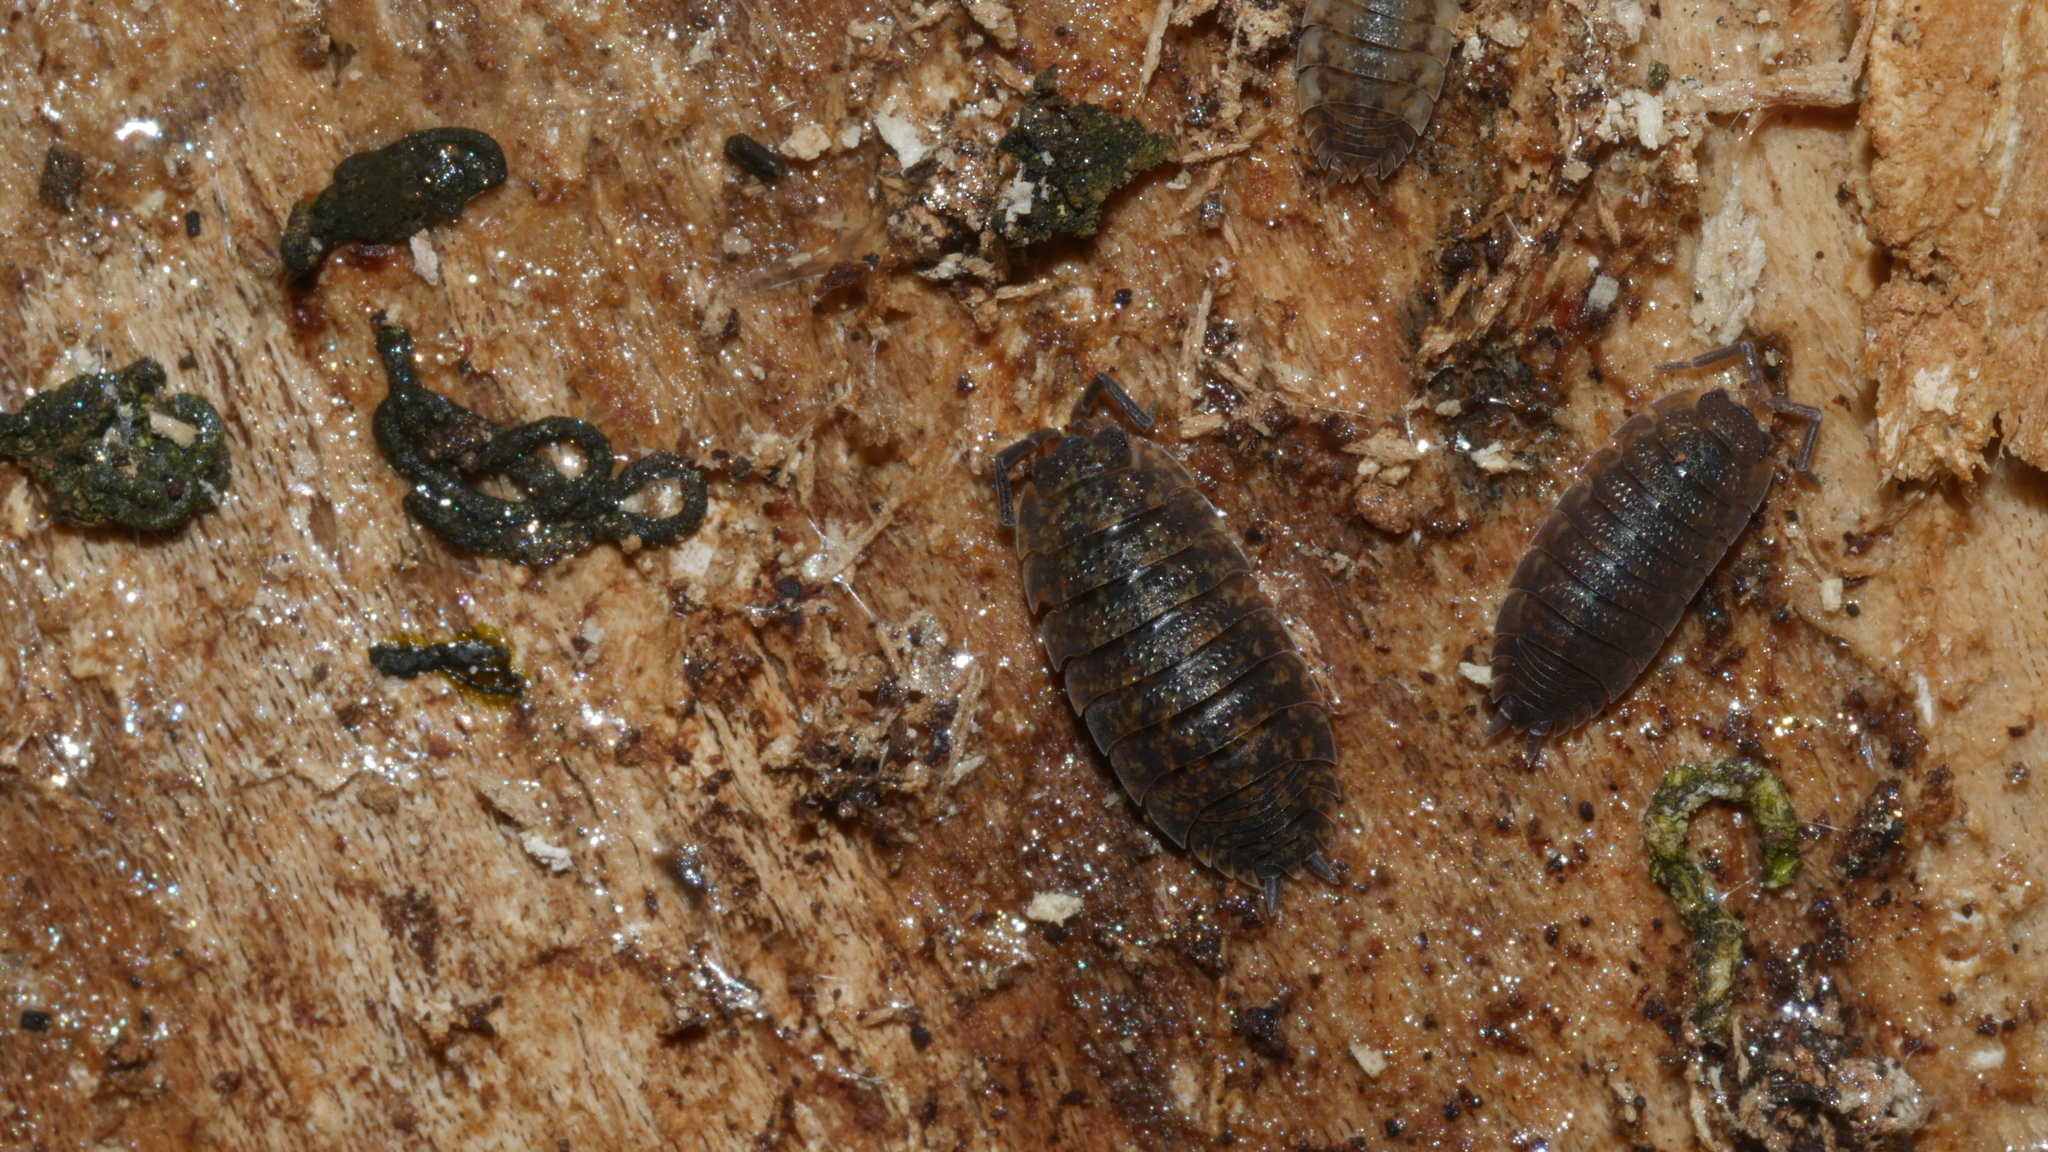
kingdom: Animalia
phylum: Arthropoda
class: Malacostraca
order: Isopoda
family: Porcellionidae
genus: Porcellio
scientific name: Porcellio scaber
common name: Common rough woodlouse
